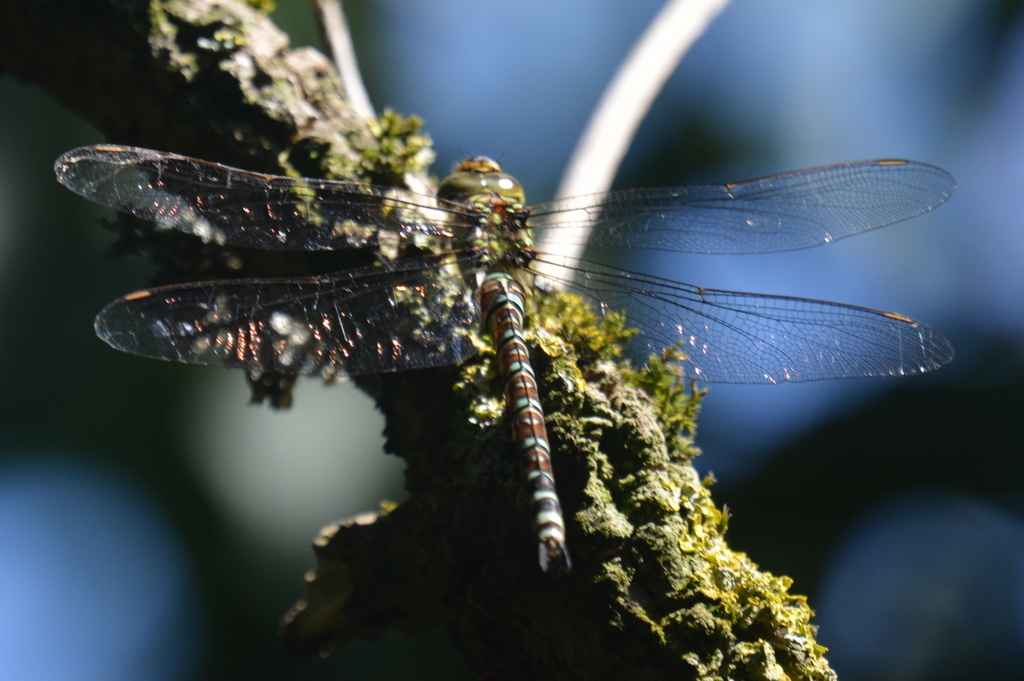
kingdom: Animalia
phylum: Arthropoda
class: Insecta
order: Odonata
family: Aeshnidae
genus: Aeshna
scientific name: Aeshna cyanea
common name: Southern hawker
